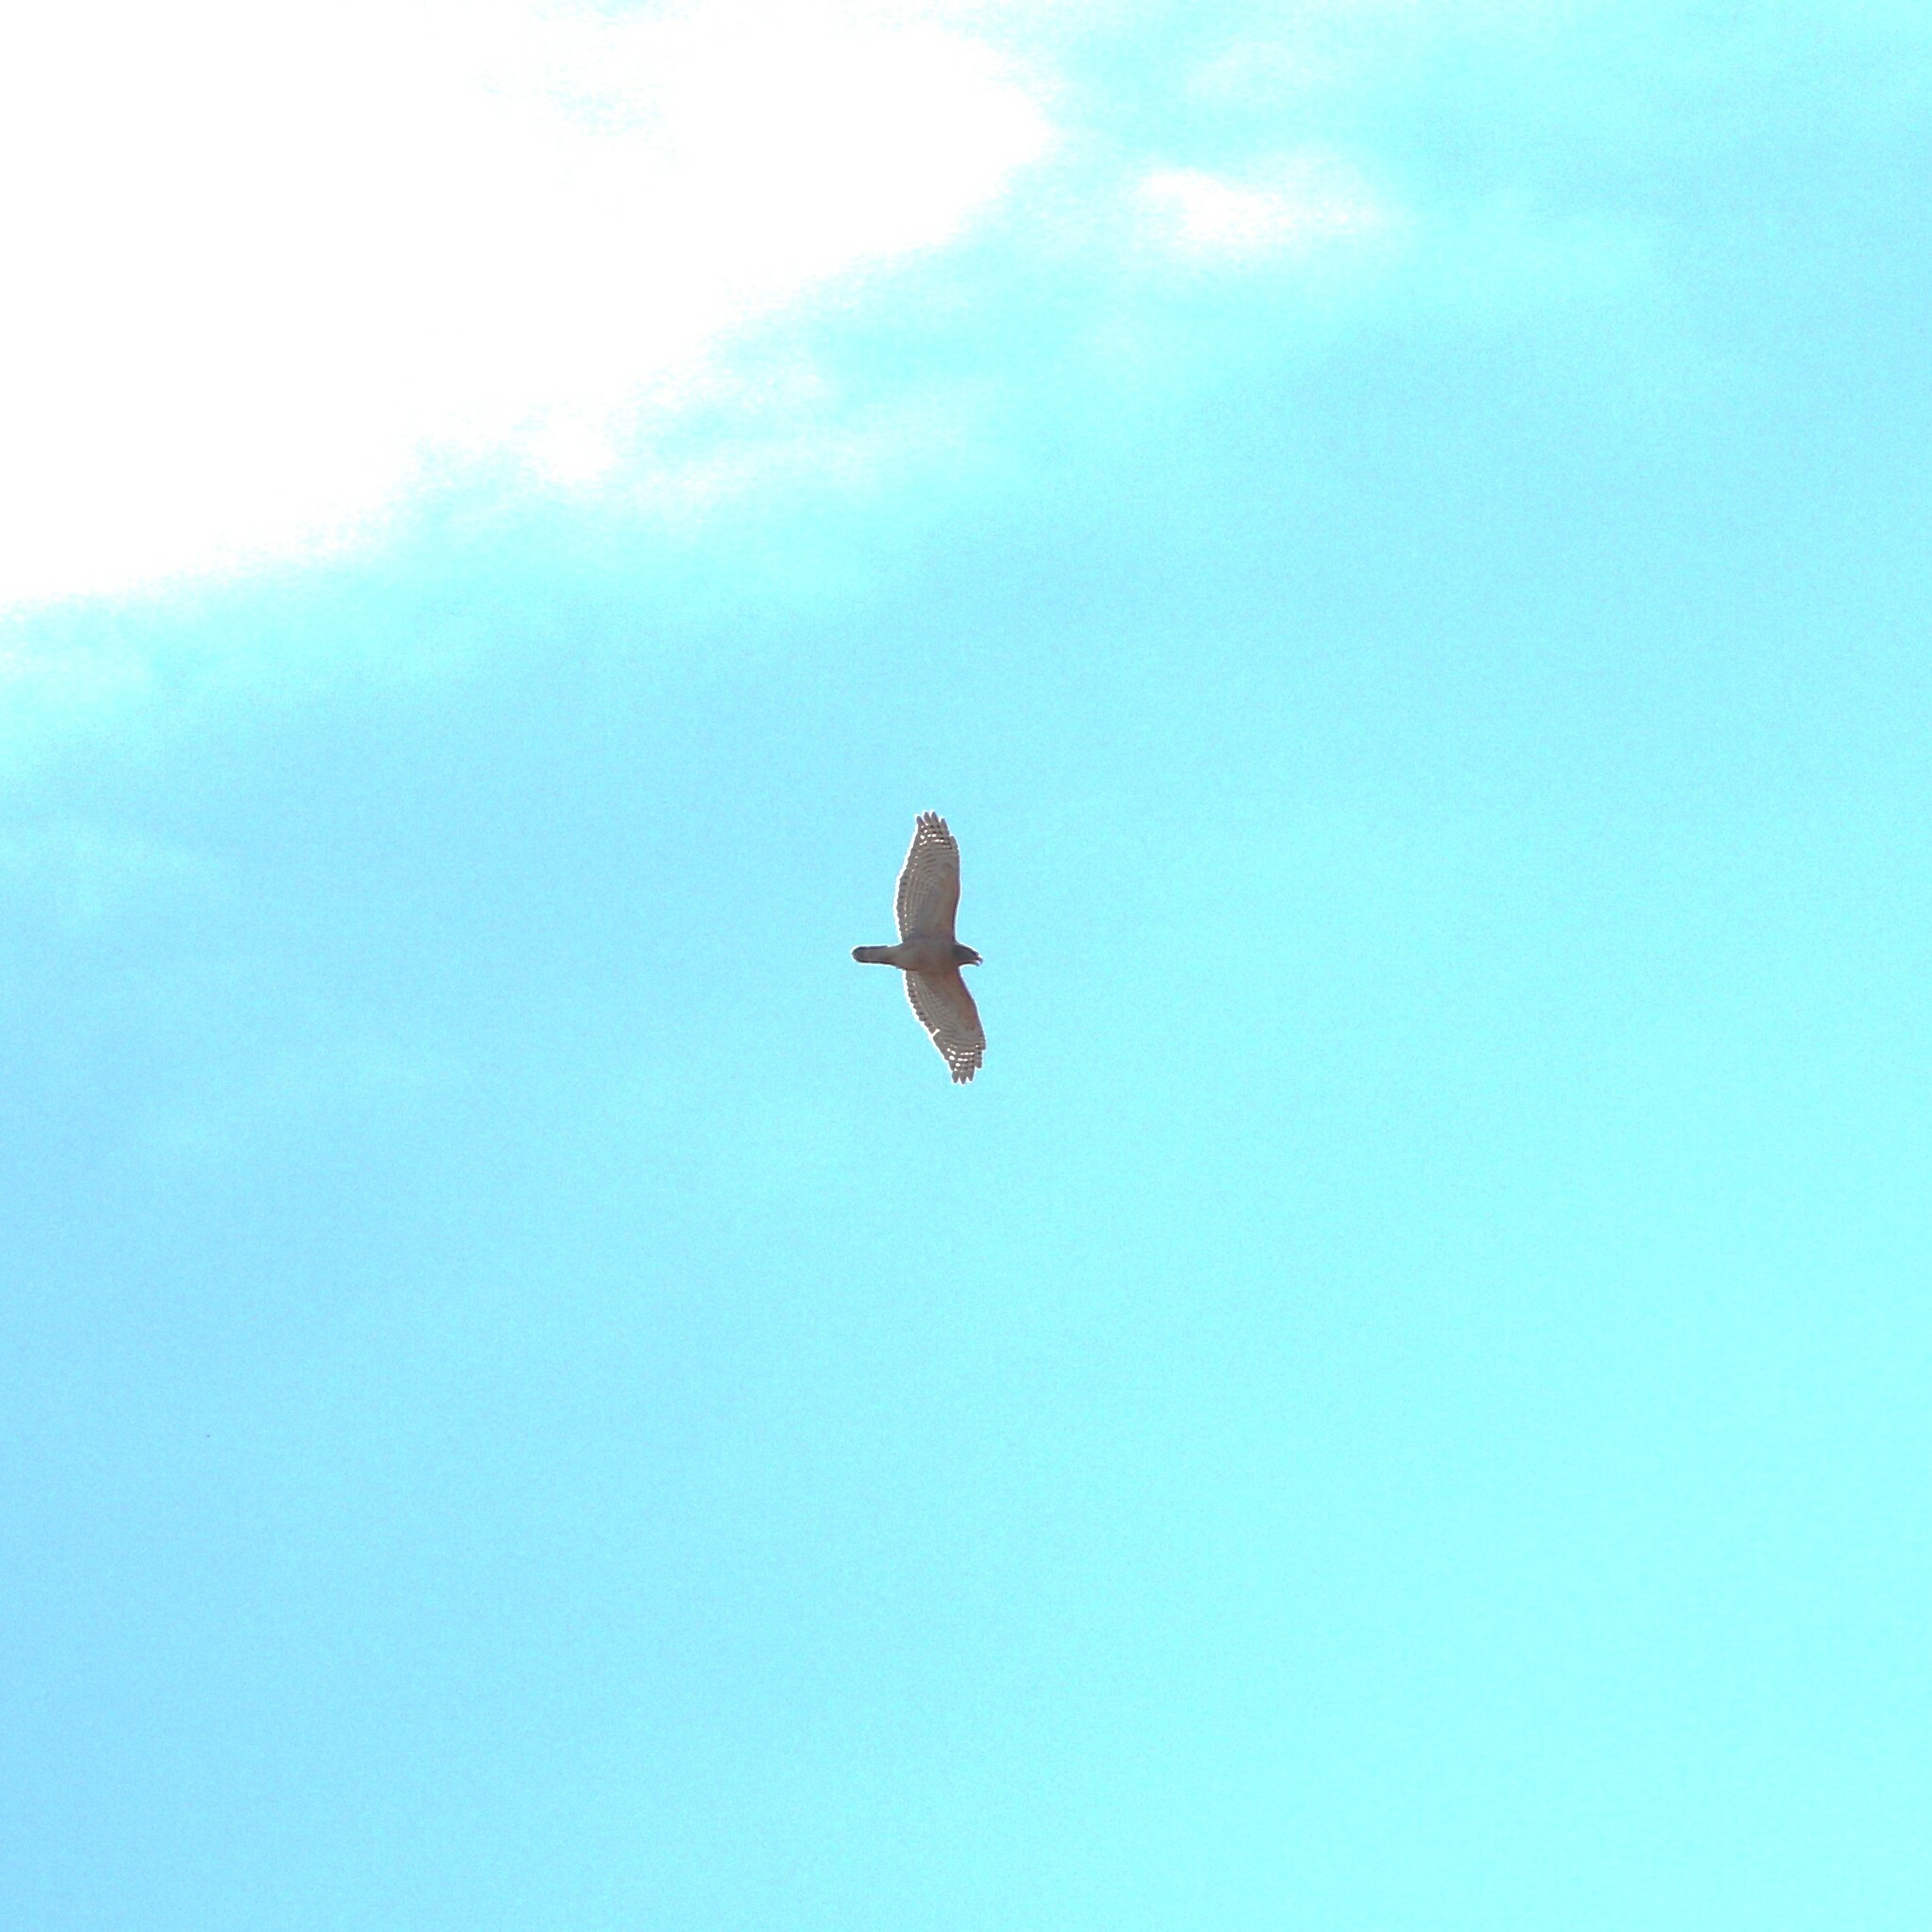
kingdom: Animalia
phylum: Chordata
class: Aves
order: Accipitriformes
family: Accipitridae
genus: Buteo
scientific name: Buteo lineatus
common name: Red-shouldered hawk
